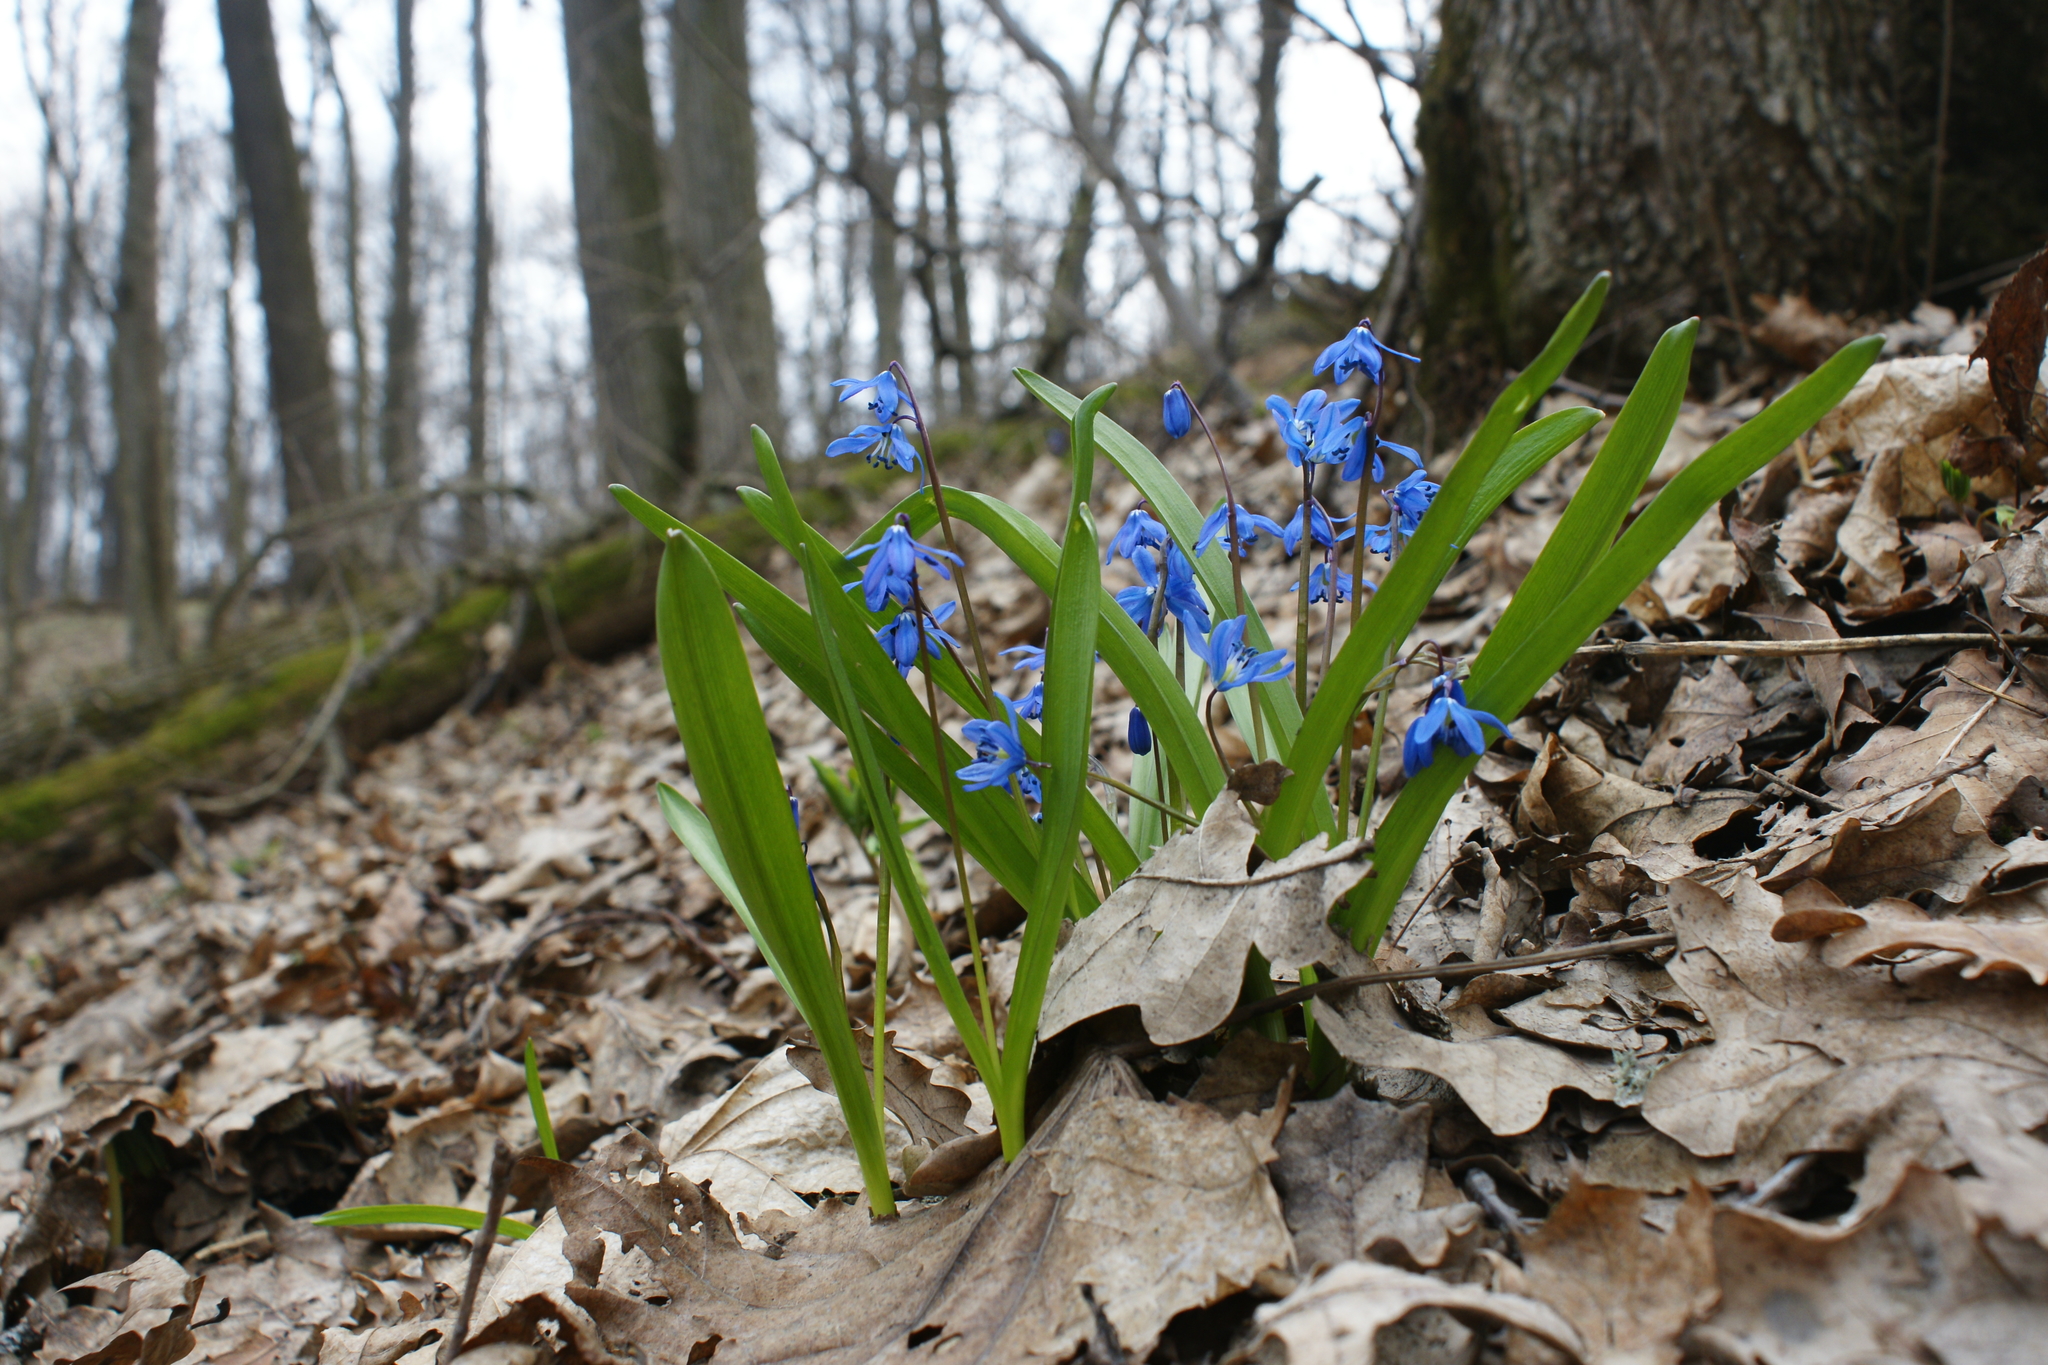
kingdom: Plantae
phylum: Tracheophyta
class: Liliopsida
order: Asparagales
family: Asparagaceae
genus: Scilla
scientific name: Scilla siberica
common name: Siberian squill
